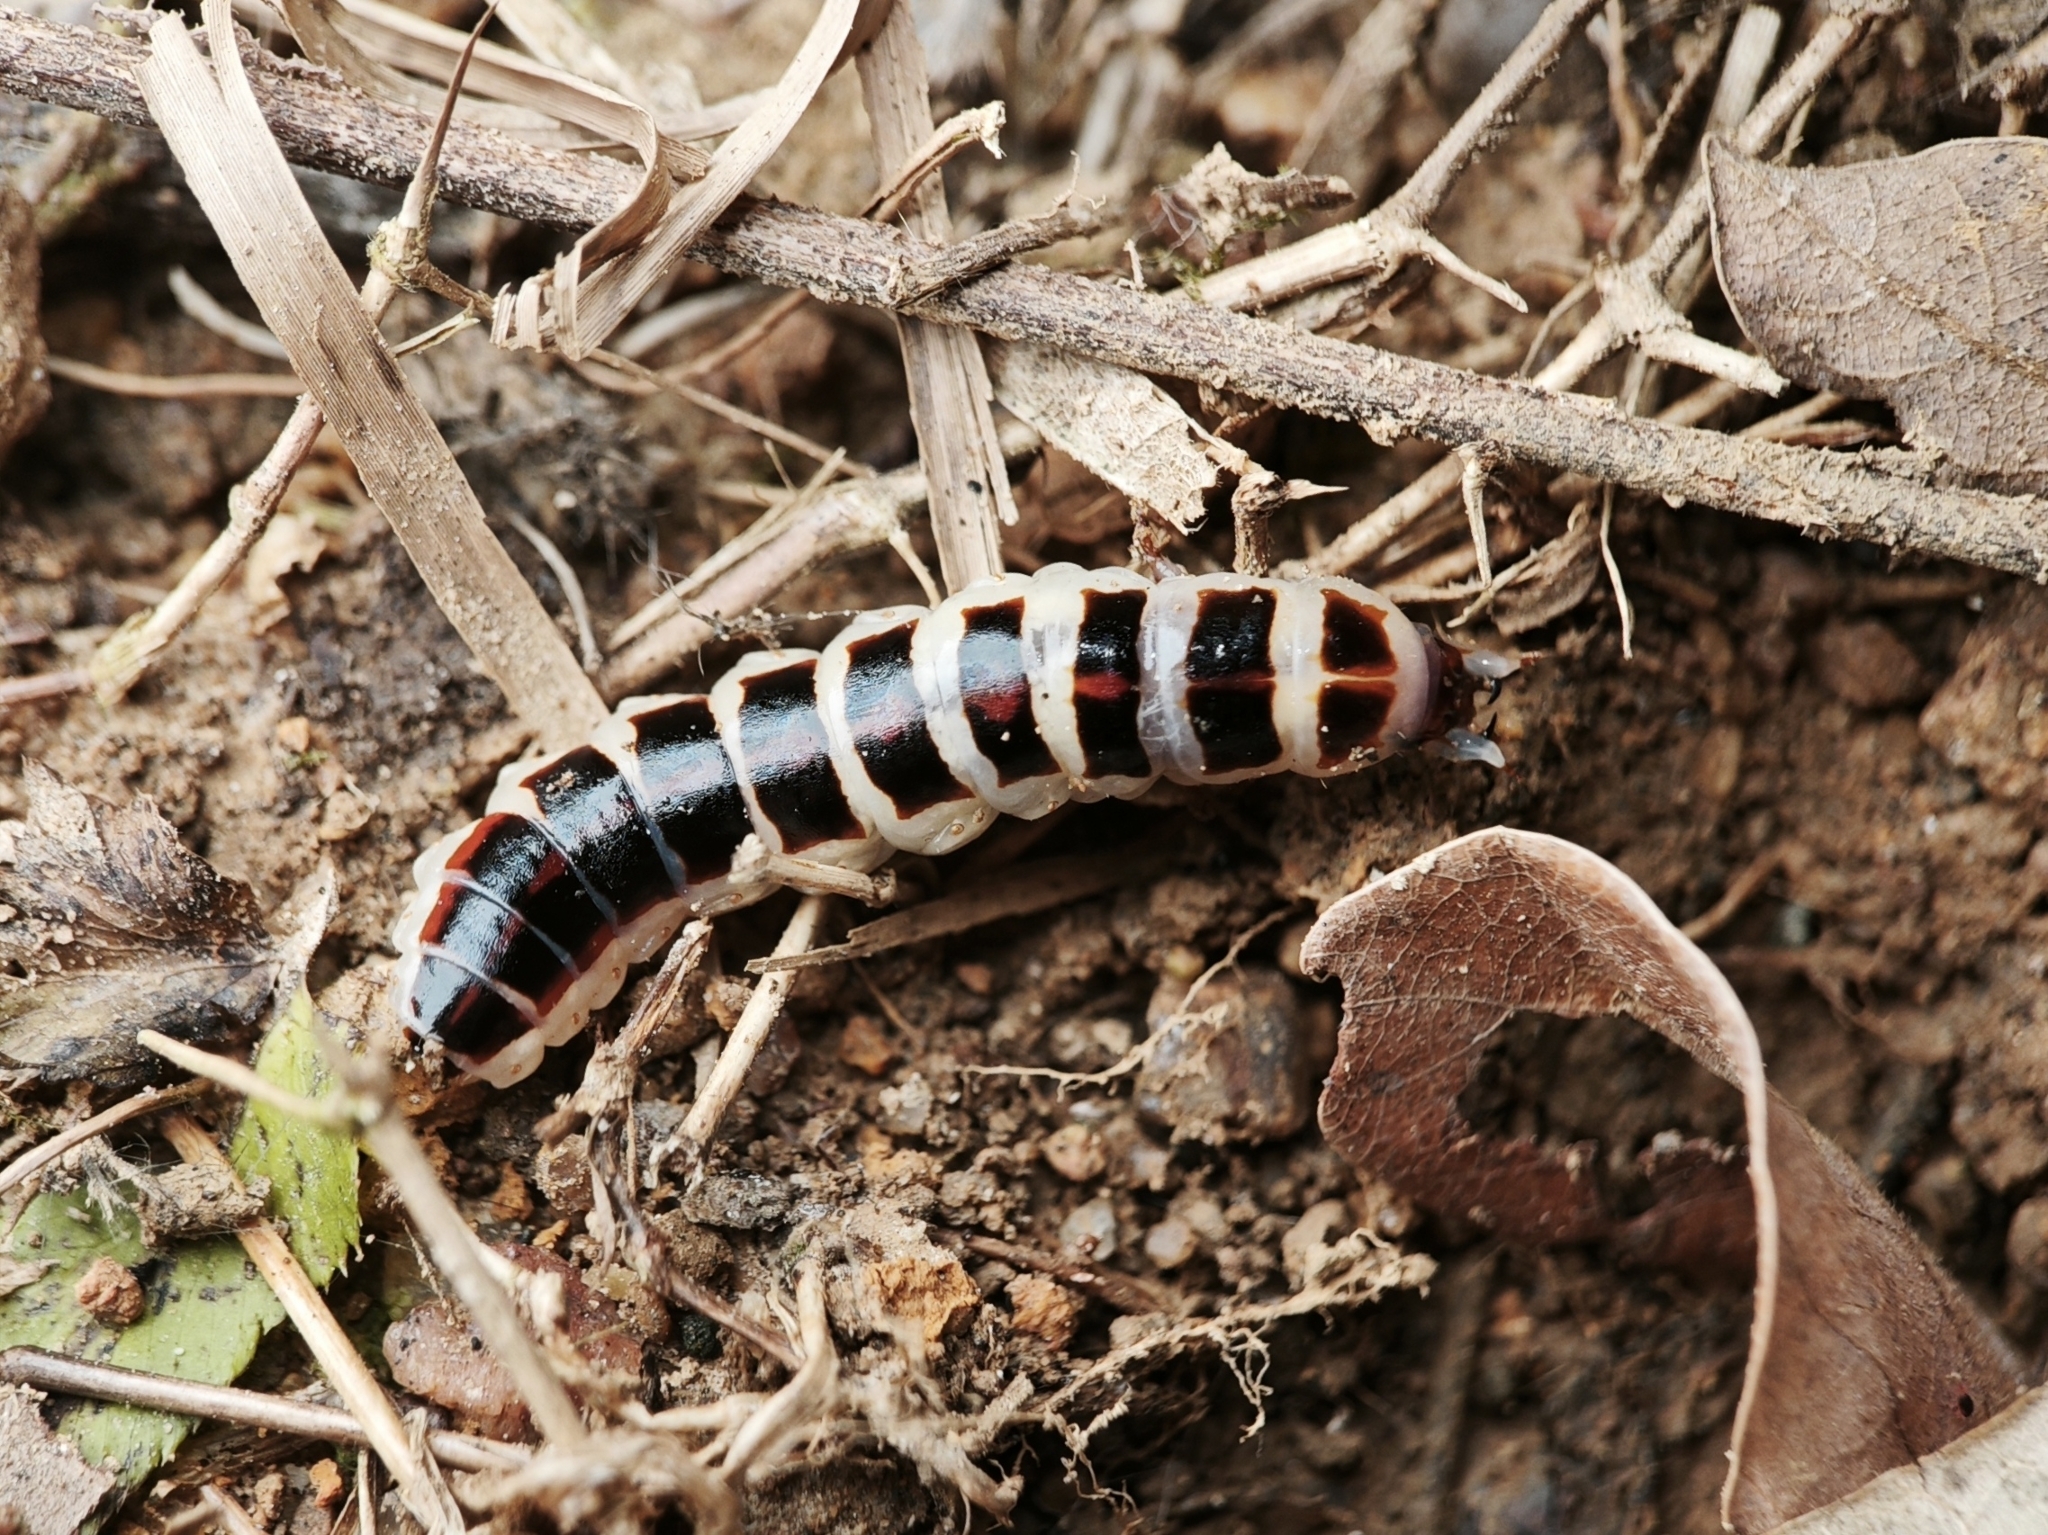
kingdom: Animalia
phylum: Arthropoda
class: Insecta
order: Coleoptera
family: Lampyridae
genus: Stenocladius
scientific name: Stenocladius bicoloripes
